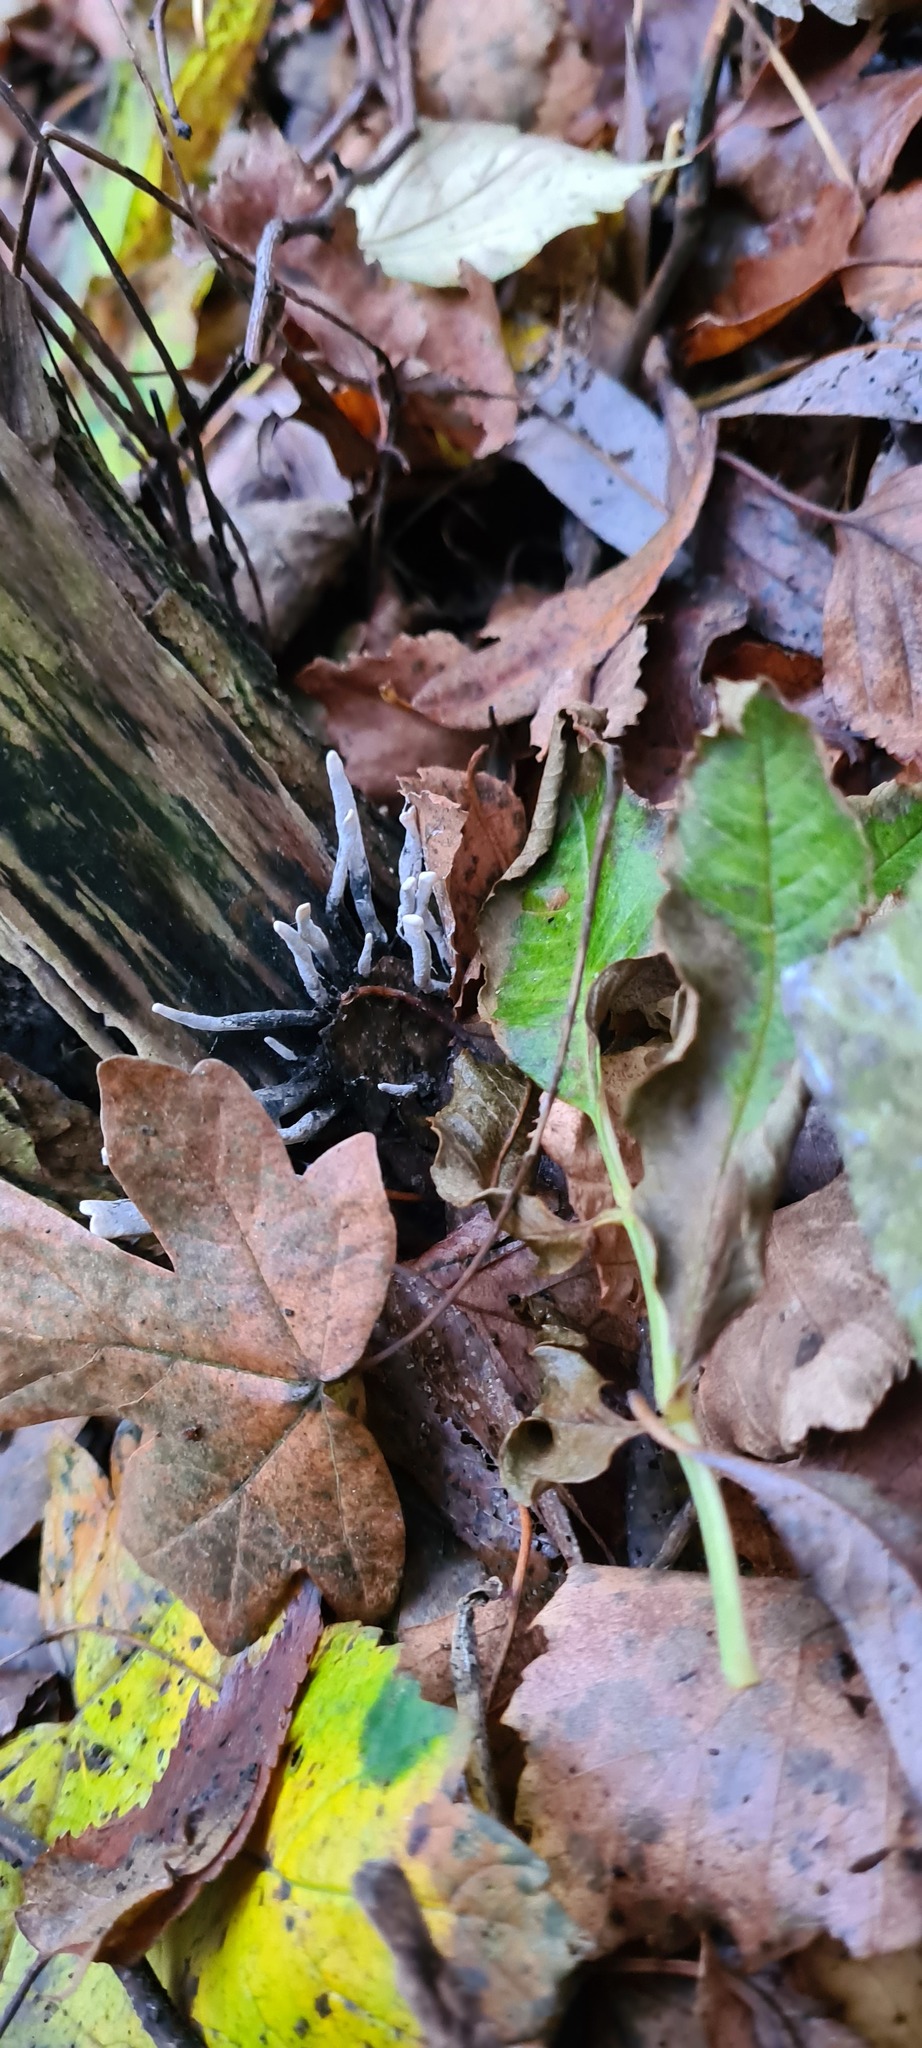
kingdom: Fungi
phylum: Ascomycota
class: Sordariomycetes
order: Xylariales
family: Xylariaceae
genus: Xylaria
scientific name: Xylaria hypoxylon
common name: Candle-snuff fungus
